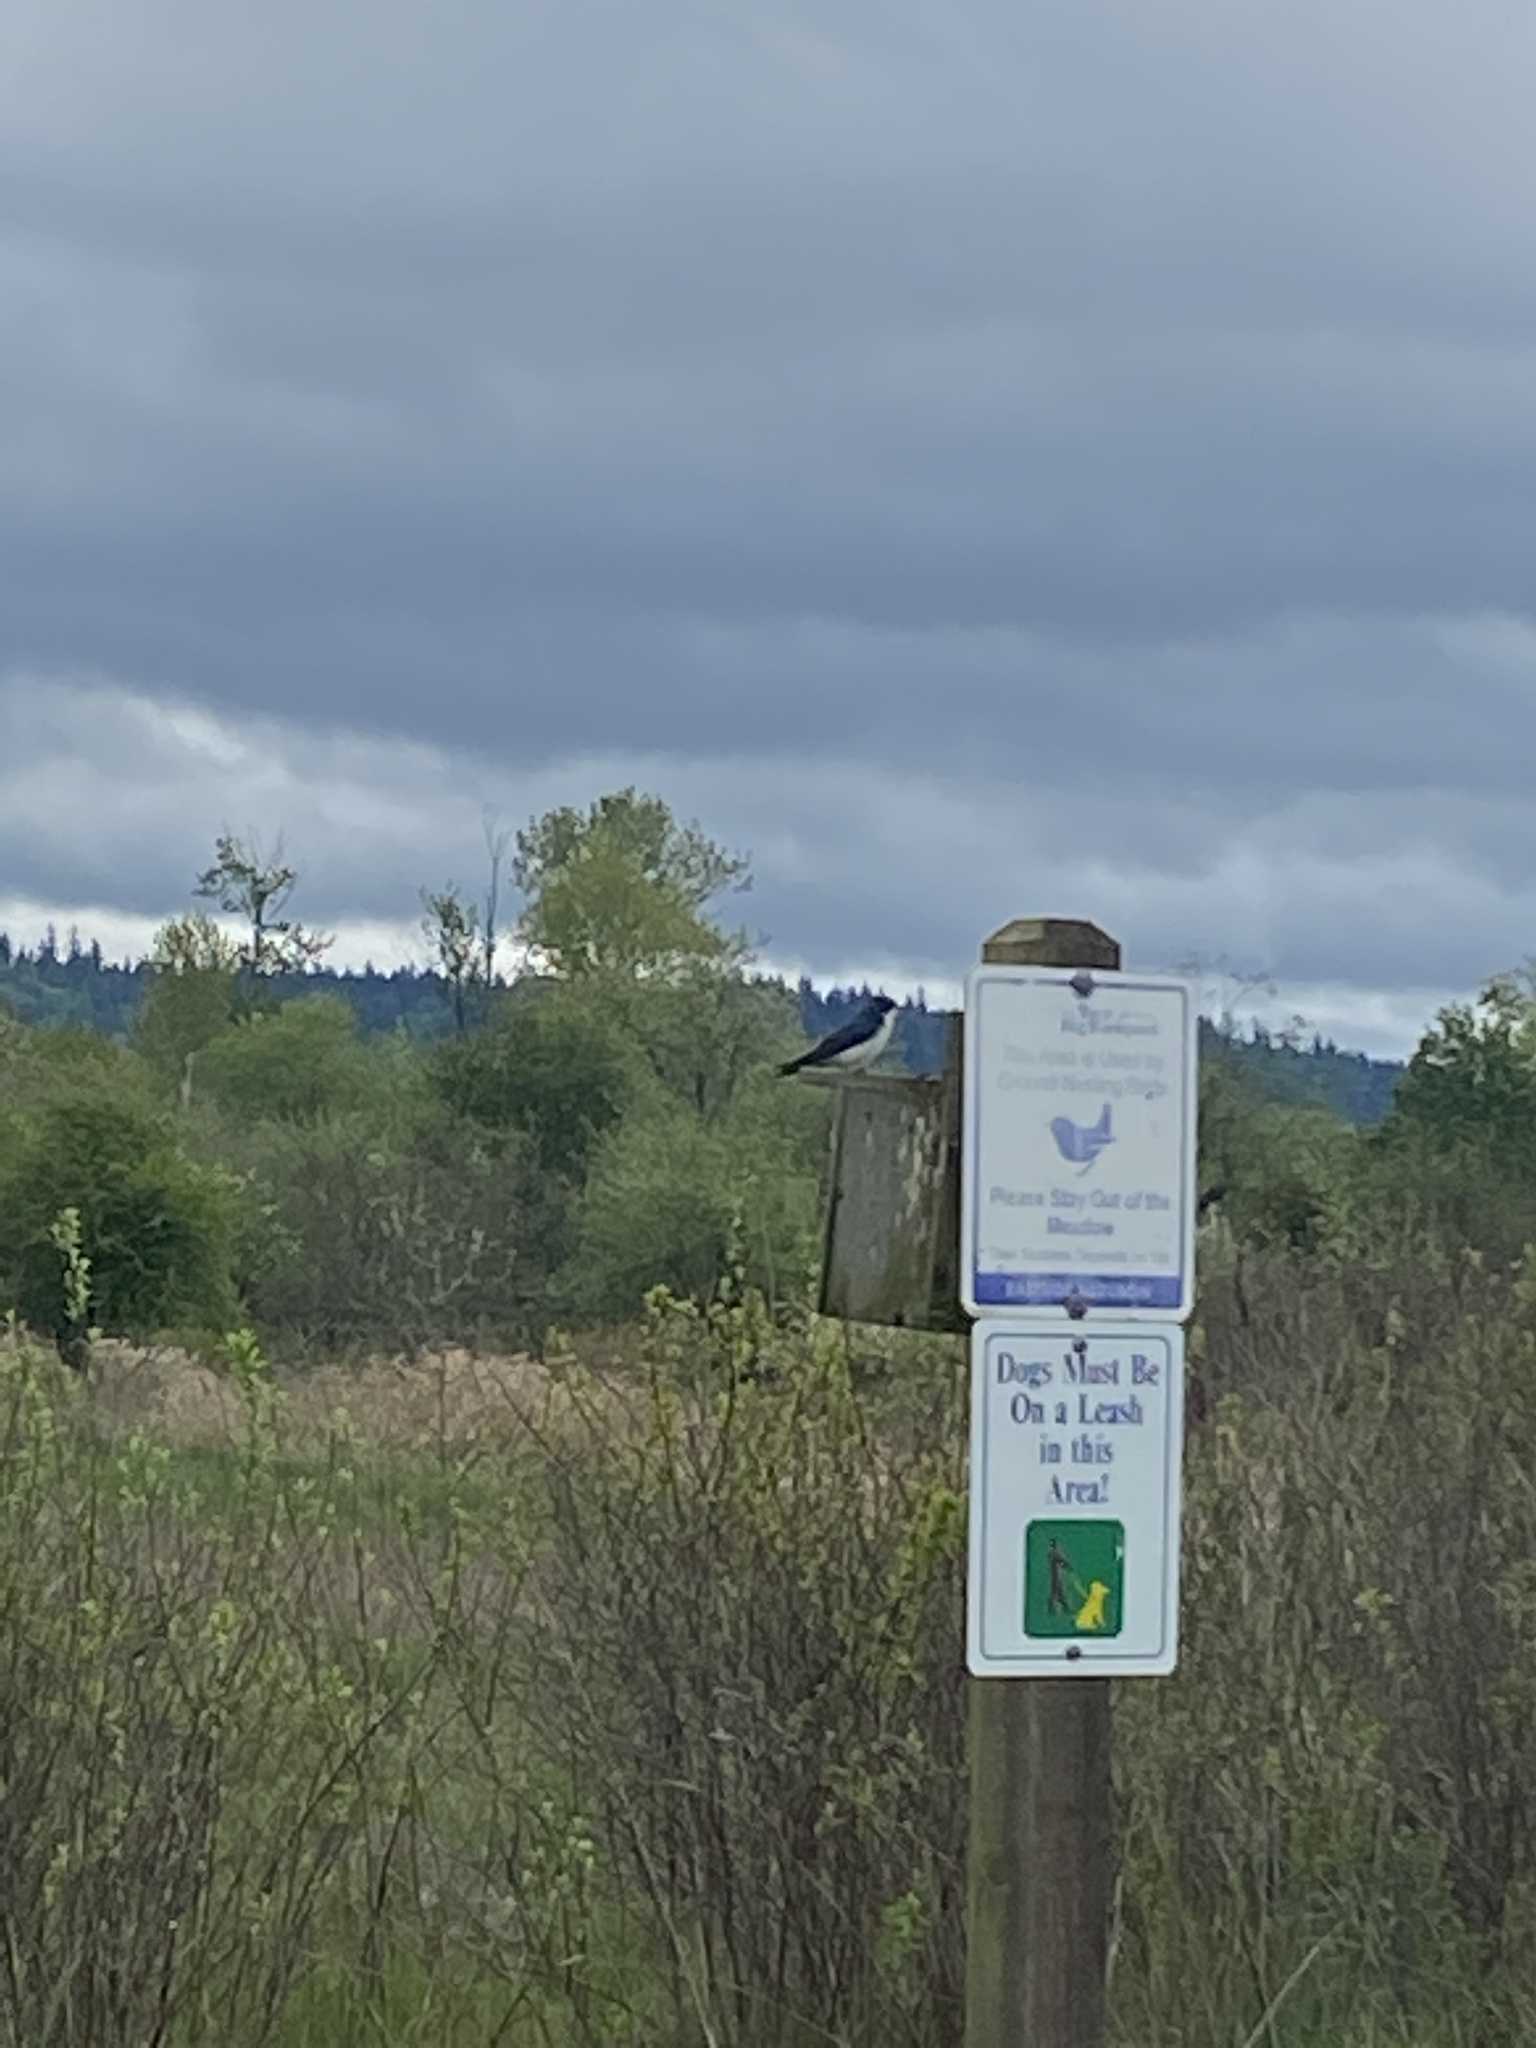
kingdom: Animalia
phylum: Chordata
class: Aves
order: Passeriformes
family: Hirundinidae
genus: Tachycineta
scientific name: Tachycineta bicolor
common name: Tree swallow
